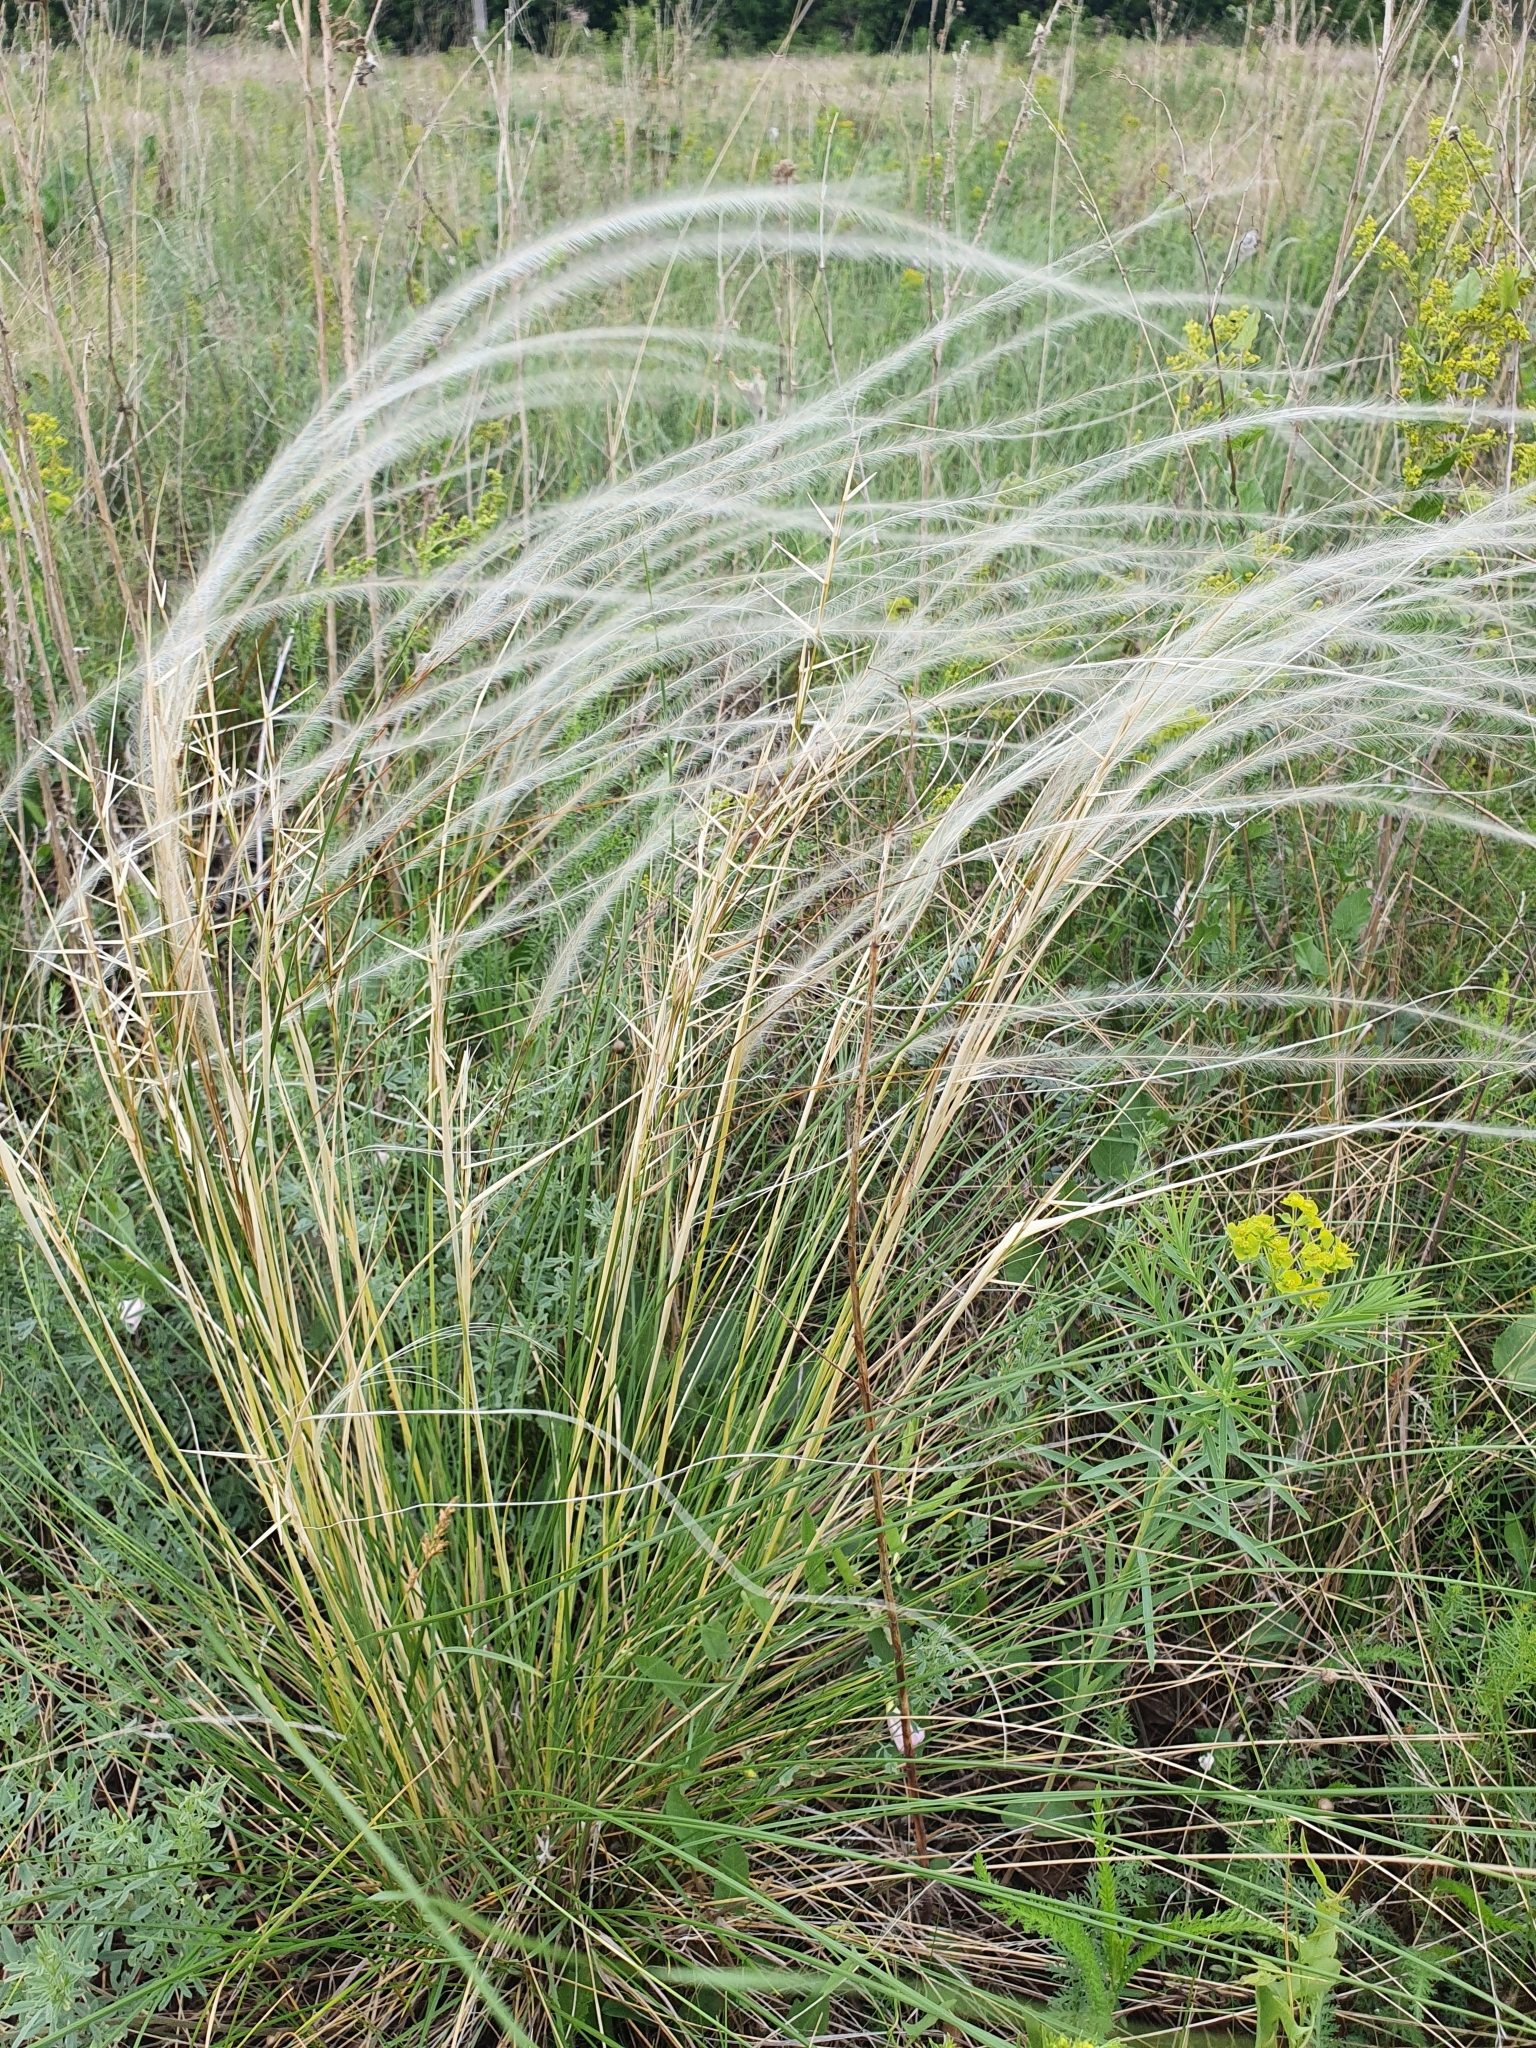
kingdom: Plantae
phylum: Tracheophyta
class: Liliopsida
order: Poales
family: Poaceae
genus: Stipa
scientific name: Stipa pennata
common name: European feather grass
